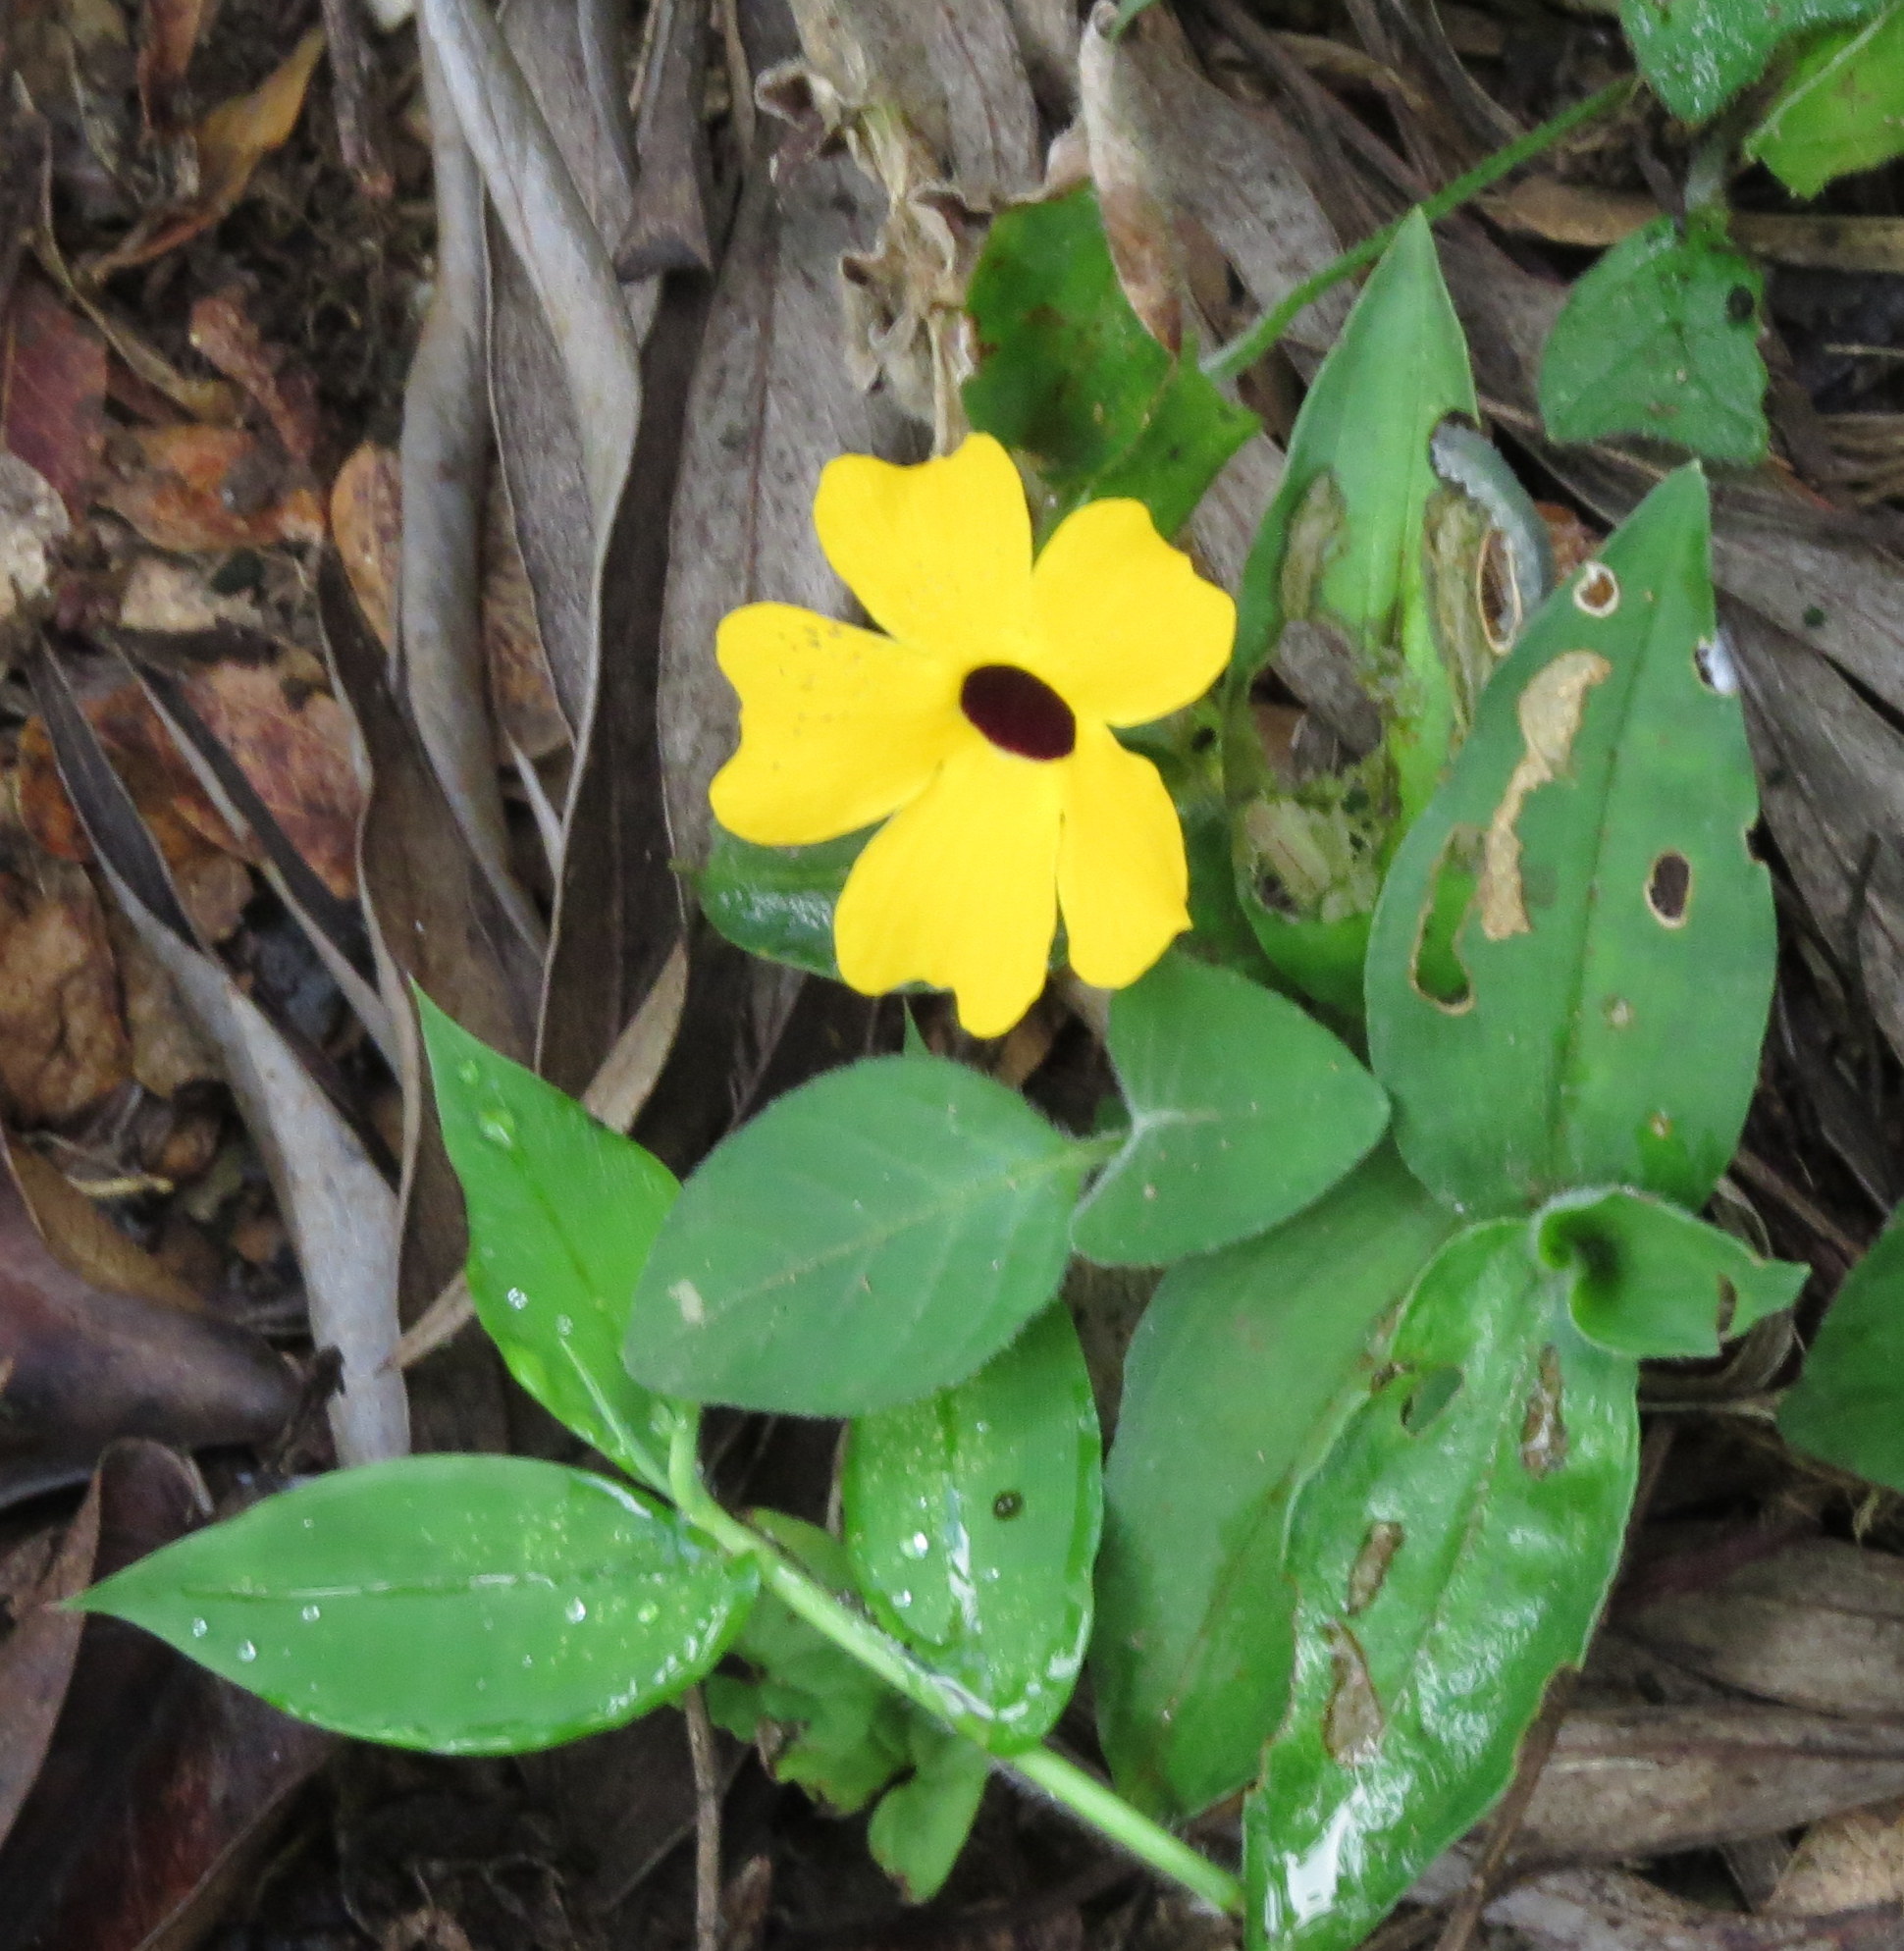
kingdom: Plantae
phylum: Tracheophyta
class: Magnoliopsida
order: Lamiales
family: Acanthaceae
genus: Thunbergia
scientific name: Thunbergia alata
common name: Blackeyed susan vine
